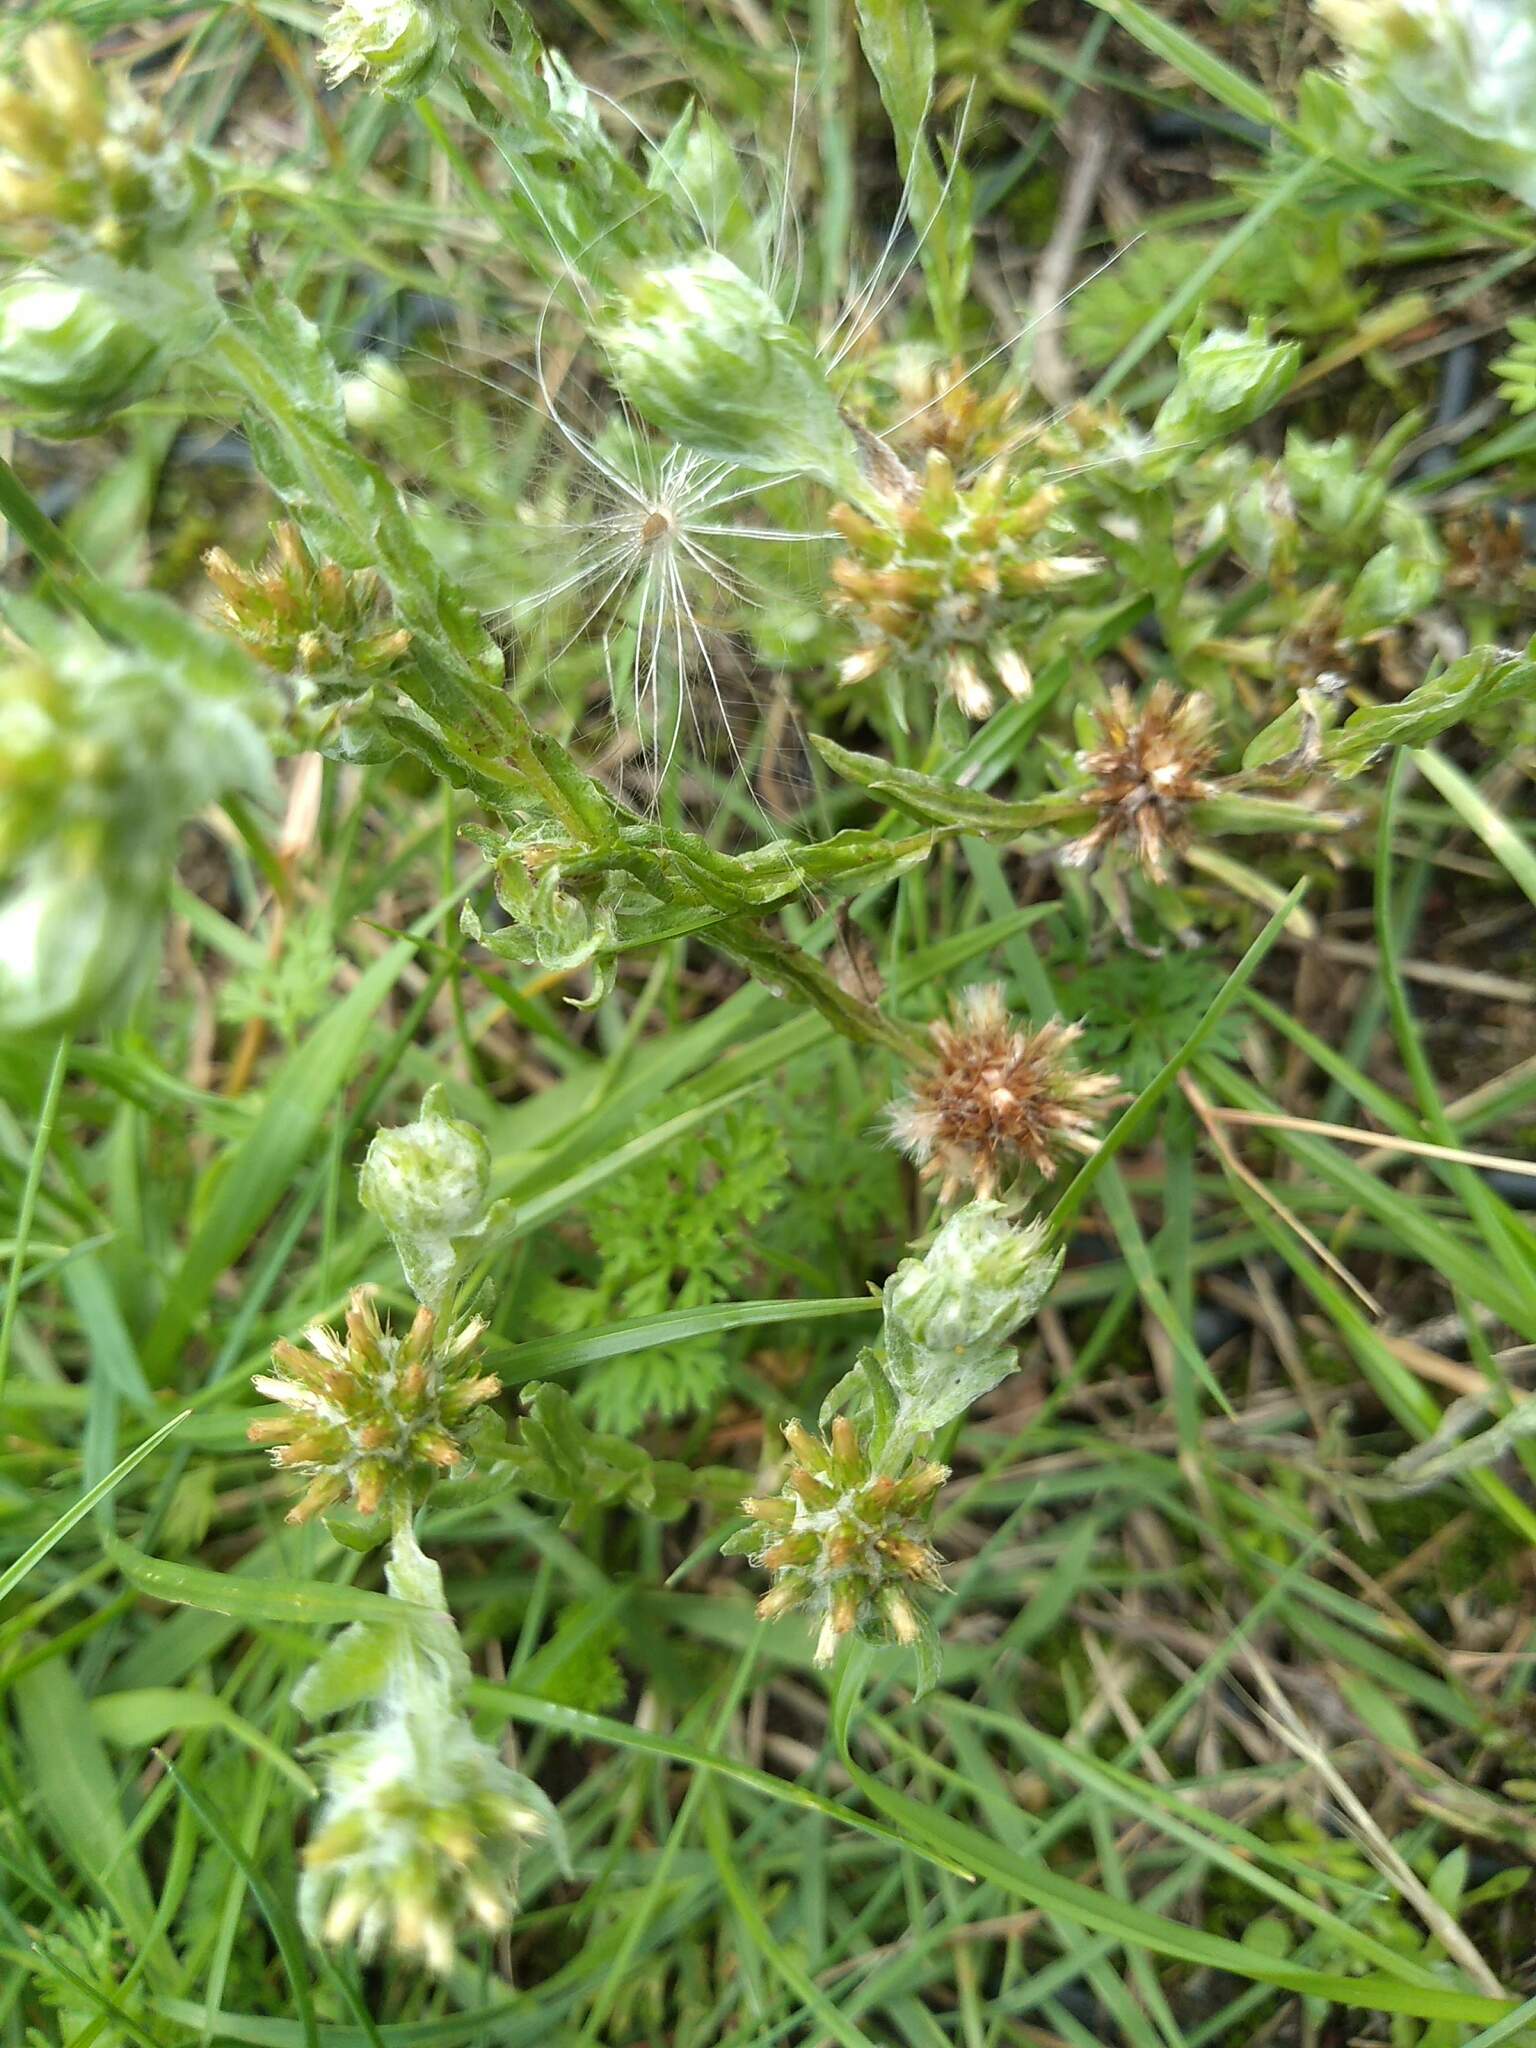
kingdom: Plantae
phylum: Tracheophyta
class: Magnoliopsida
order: Asterales
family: Asteraceae
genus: Filago
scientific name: Filago germanica
